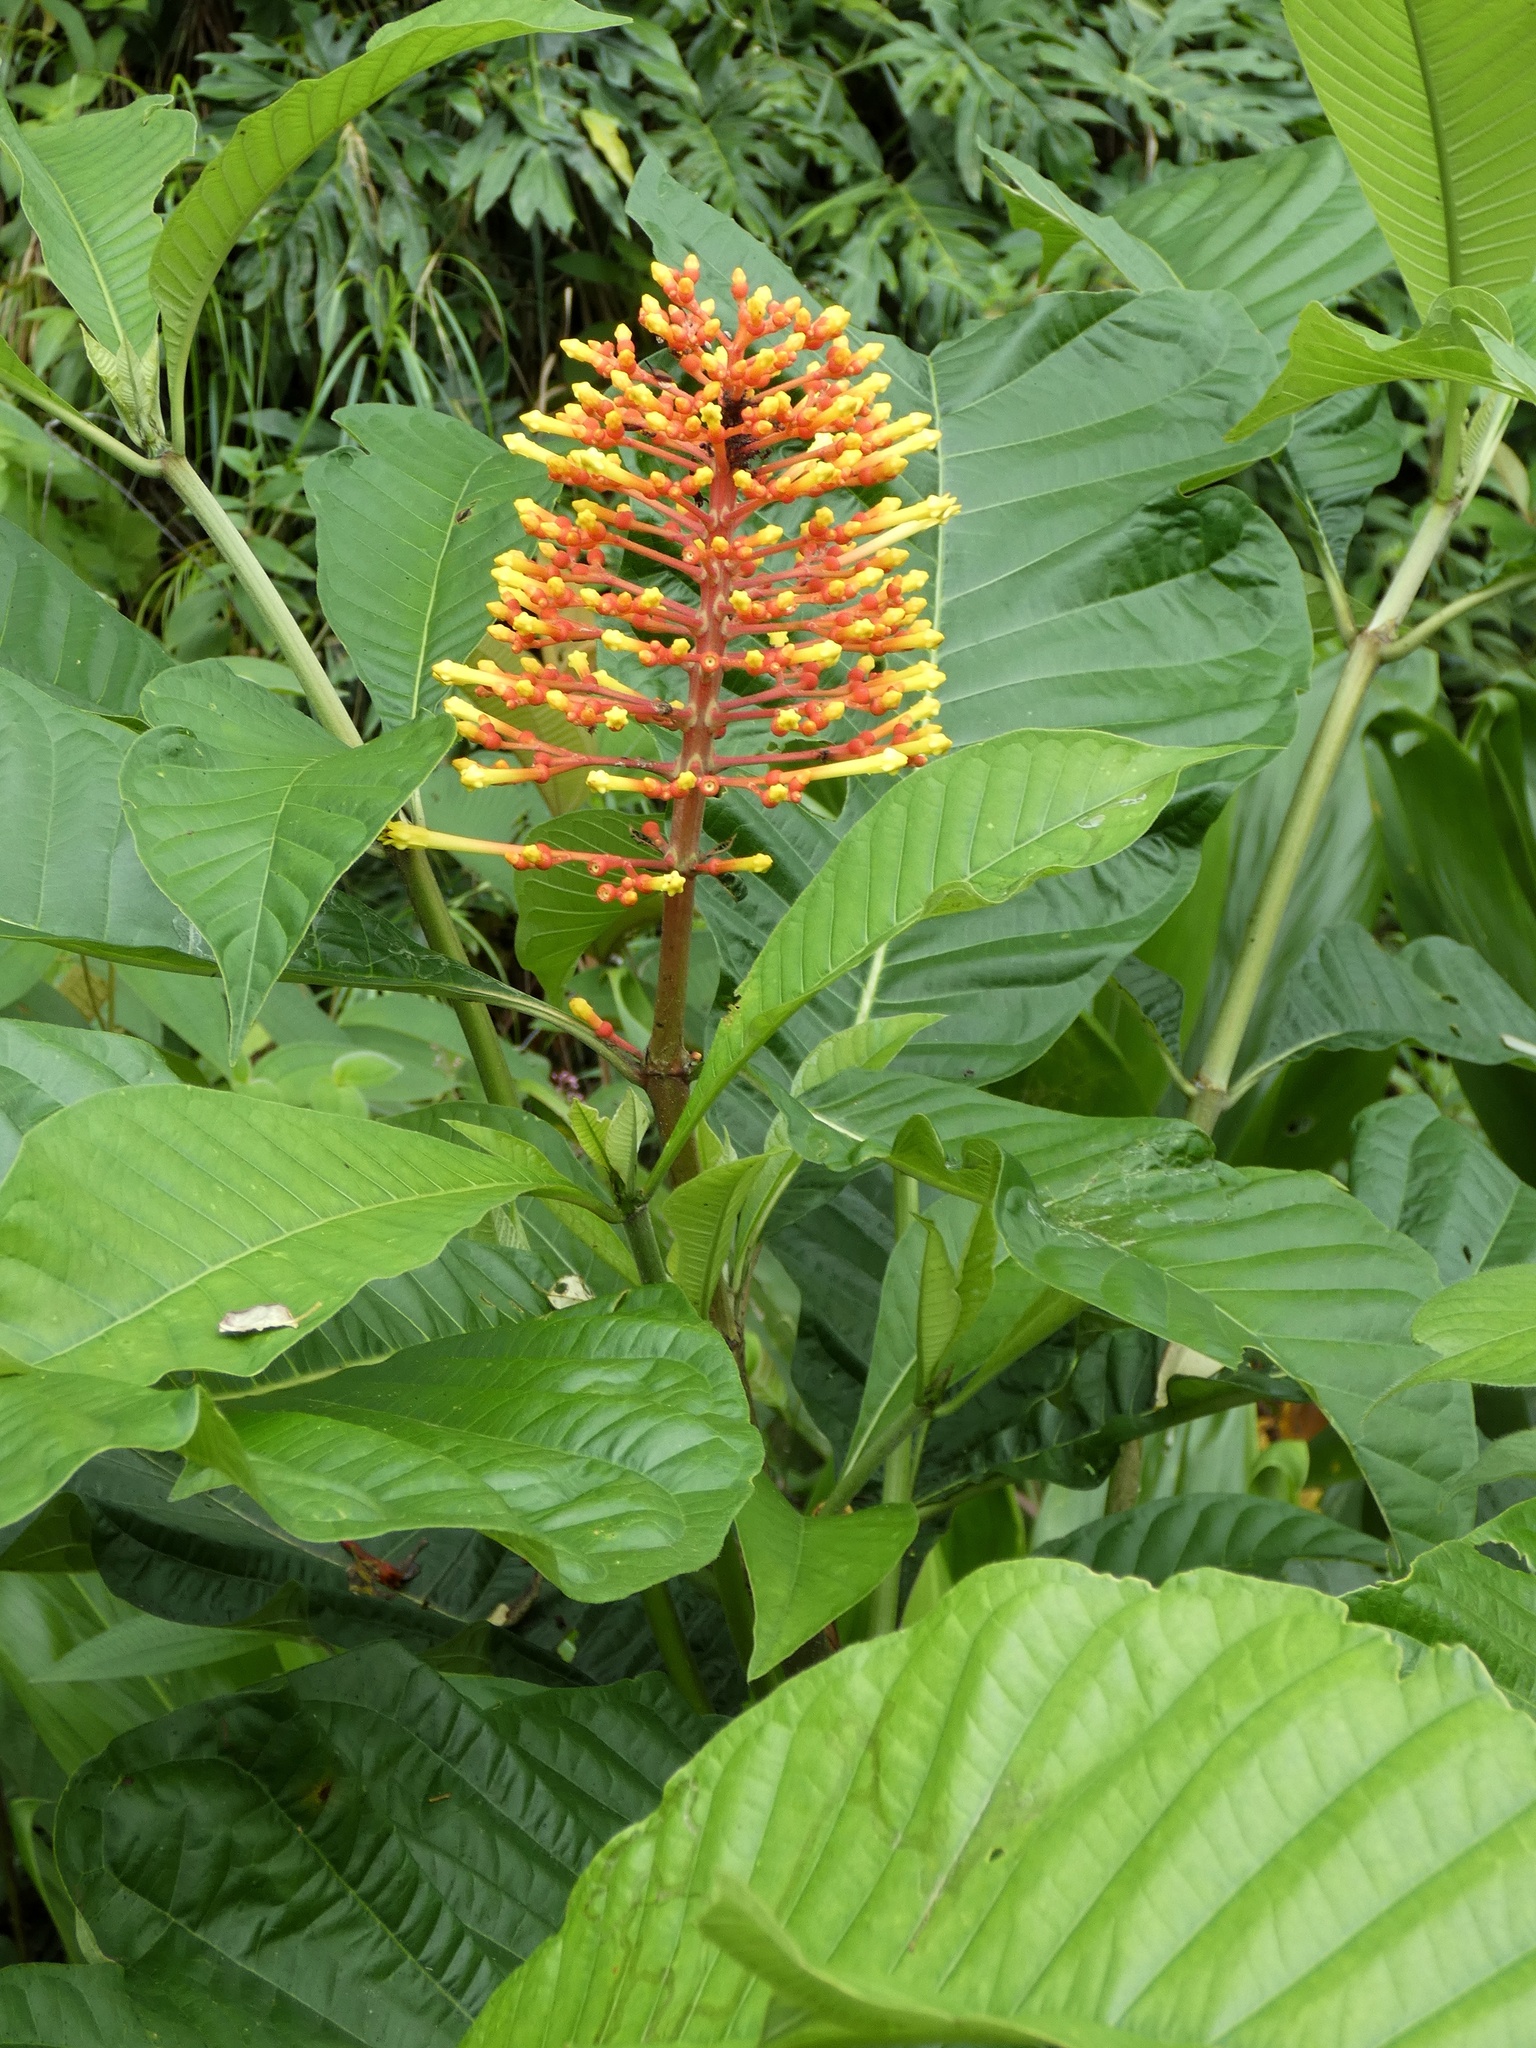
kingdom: Plantae
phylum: Tracheophyta
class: Magnoliopsida
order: Gentianales
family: Rubiaceae
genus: Isertia
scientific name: Isertia haenkeana
